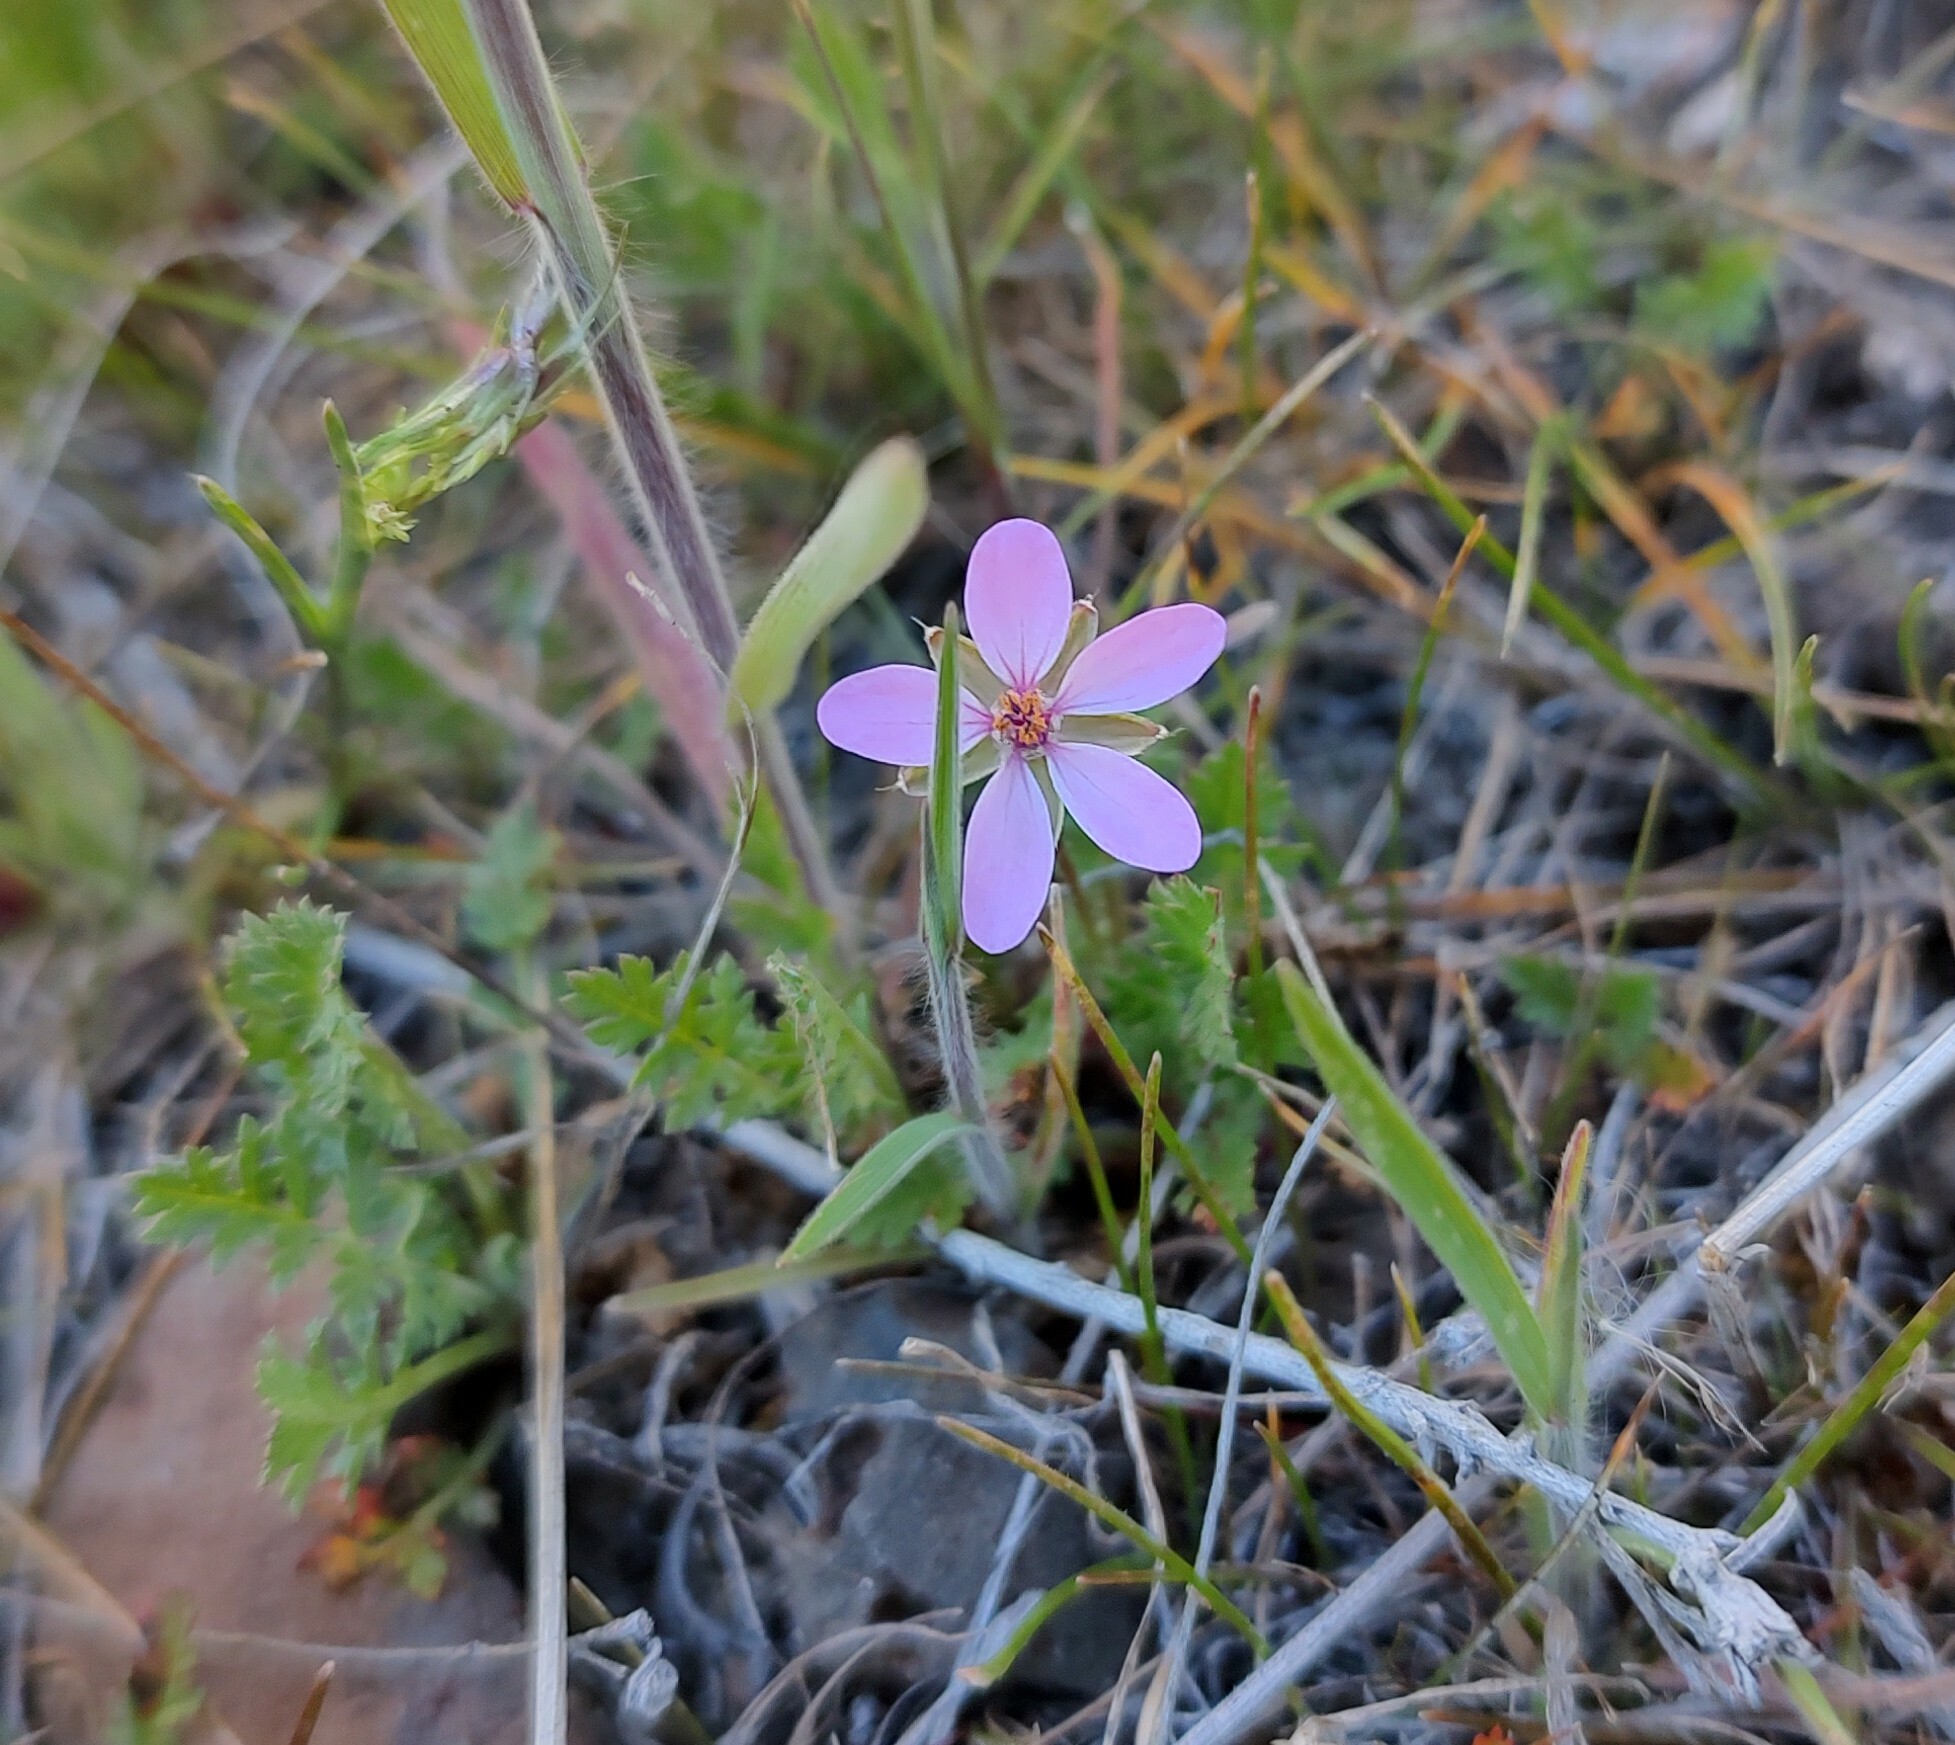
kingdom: Plantae
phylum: Tracheophyta
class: Magnoliopsida
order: Geraniales
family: Geraniaceae
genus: Erodium
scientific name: Erodium cicutarium
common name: Common stork's-bill
